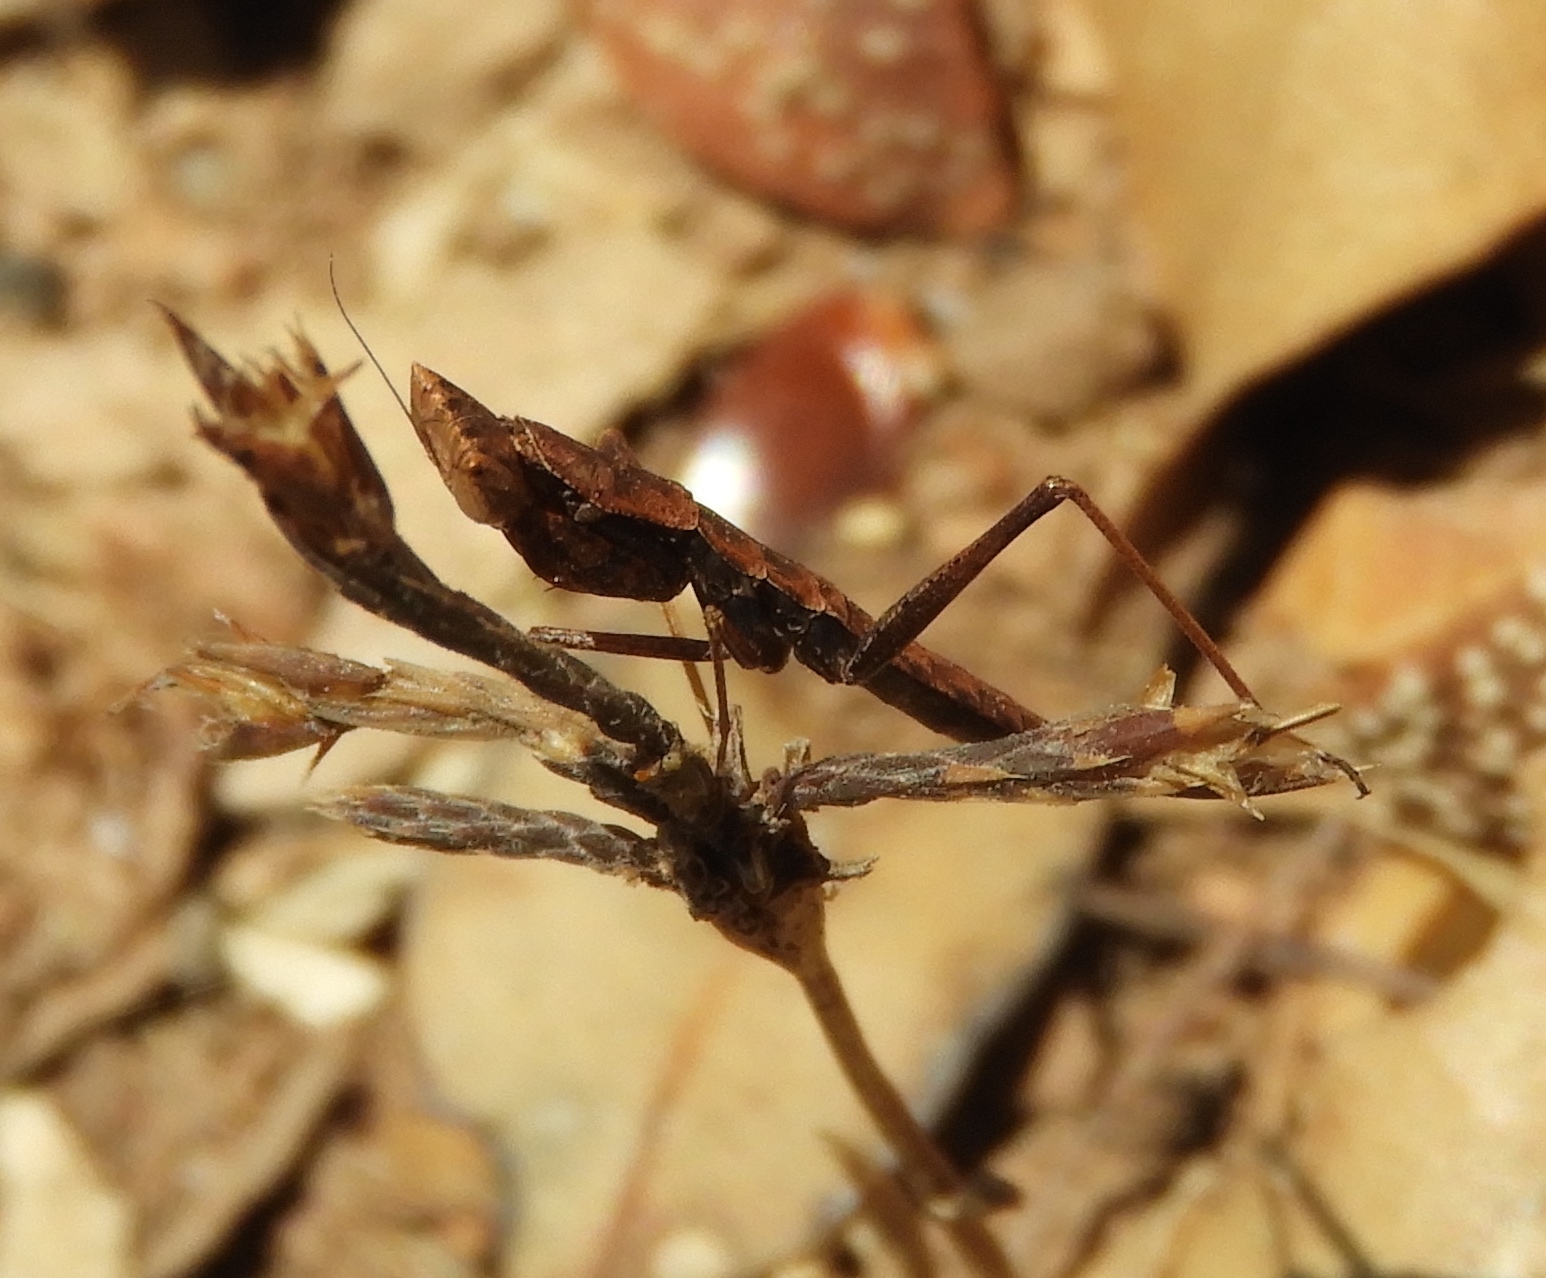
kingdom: Animalia
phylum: Arthropoda
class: Insecta
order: Mantodea
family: Amelidae
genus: Yersinia
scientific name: Yersinia mexicana
